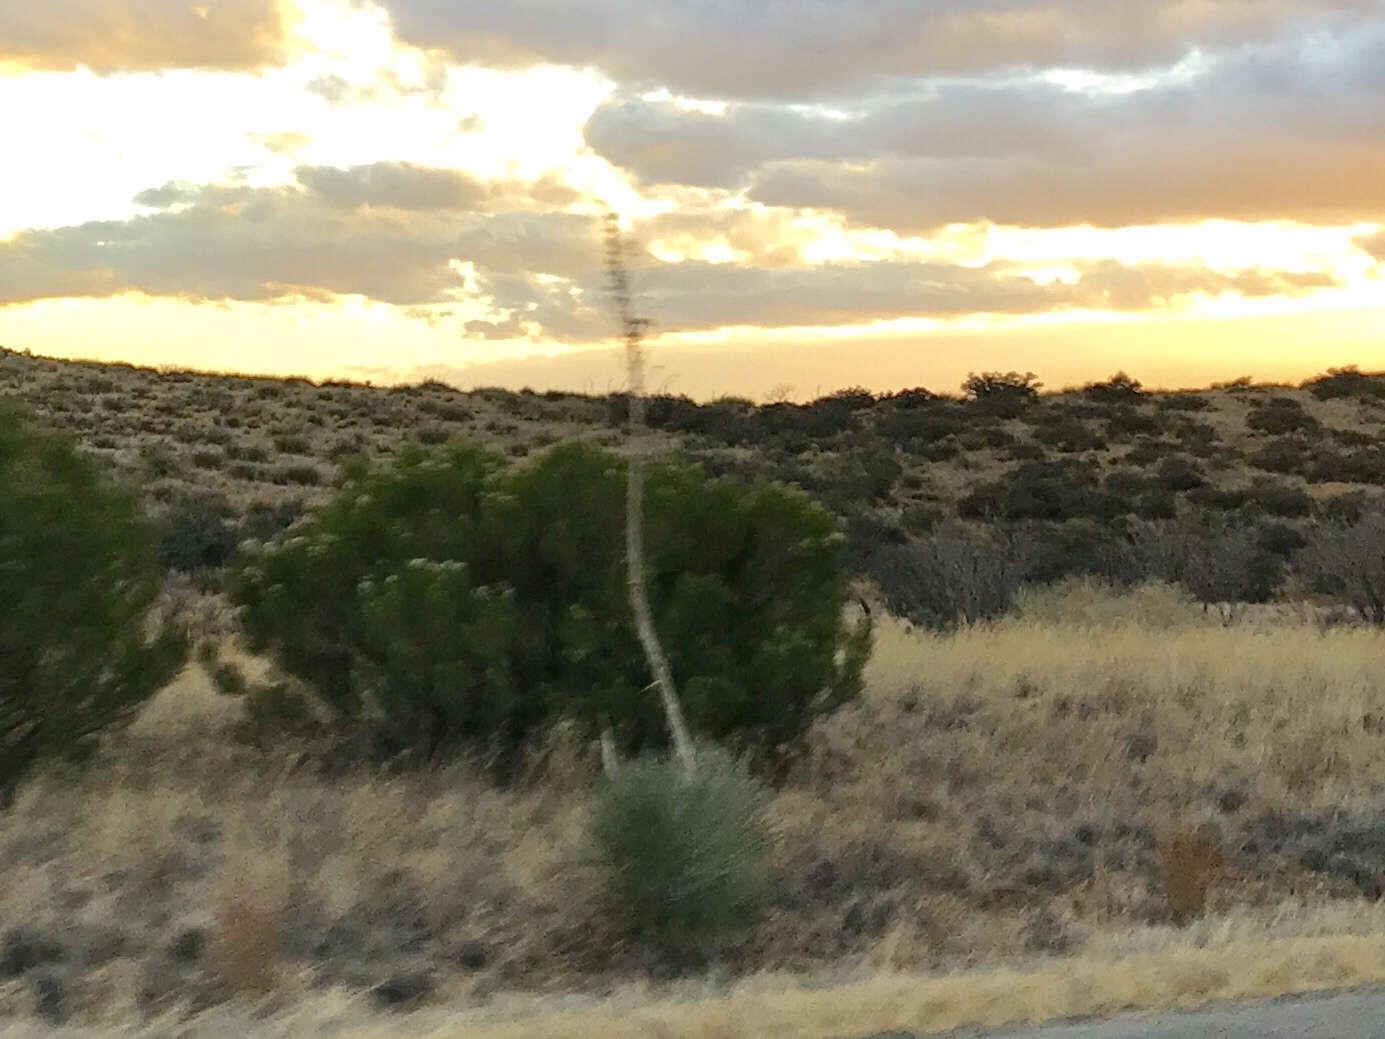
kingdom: Plantae
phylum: Tracheophyta
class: Liliopsida
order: Asparagales
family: Asparagaceae
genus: Dasylirion
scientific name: Dasylirion wheeleri
